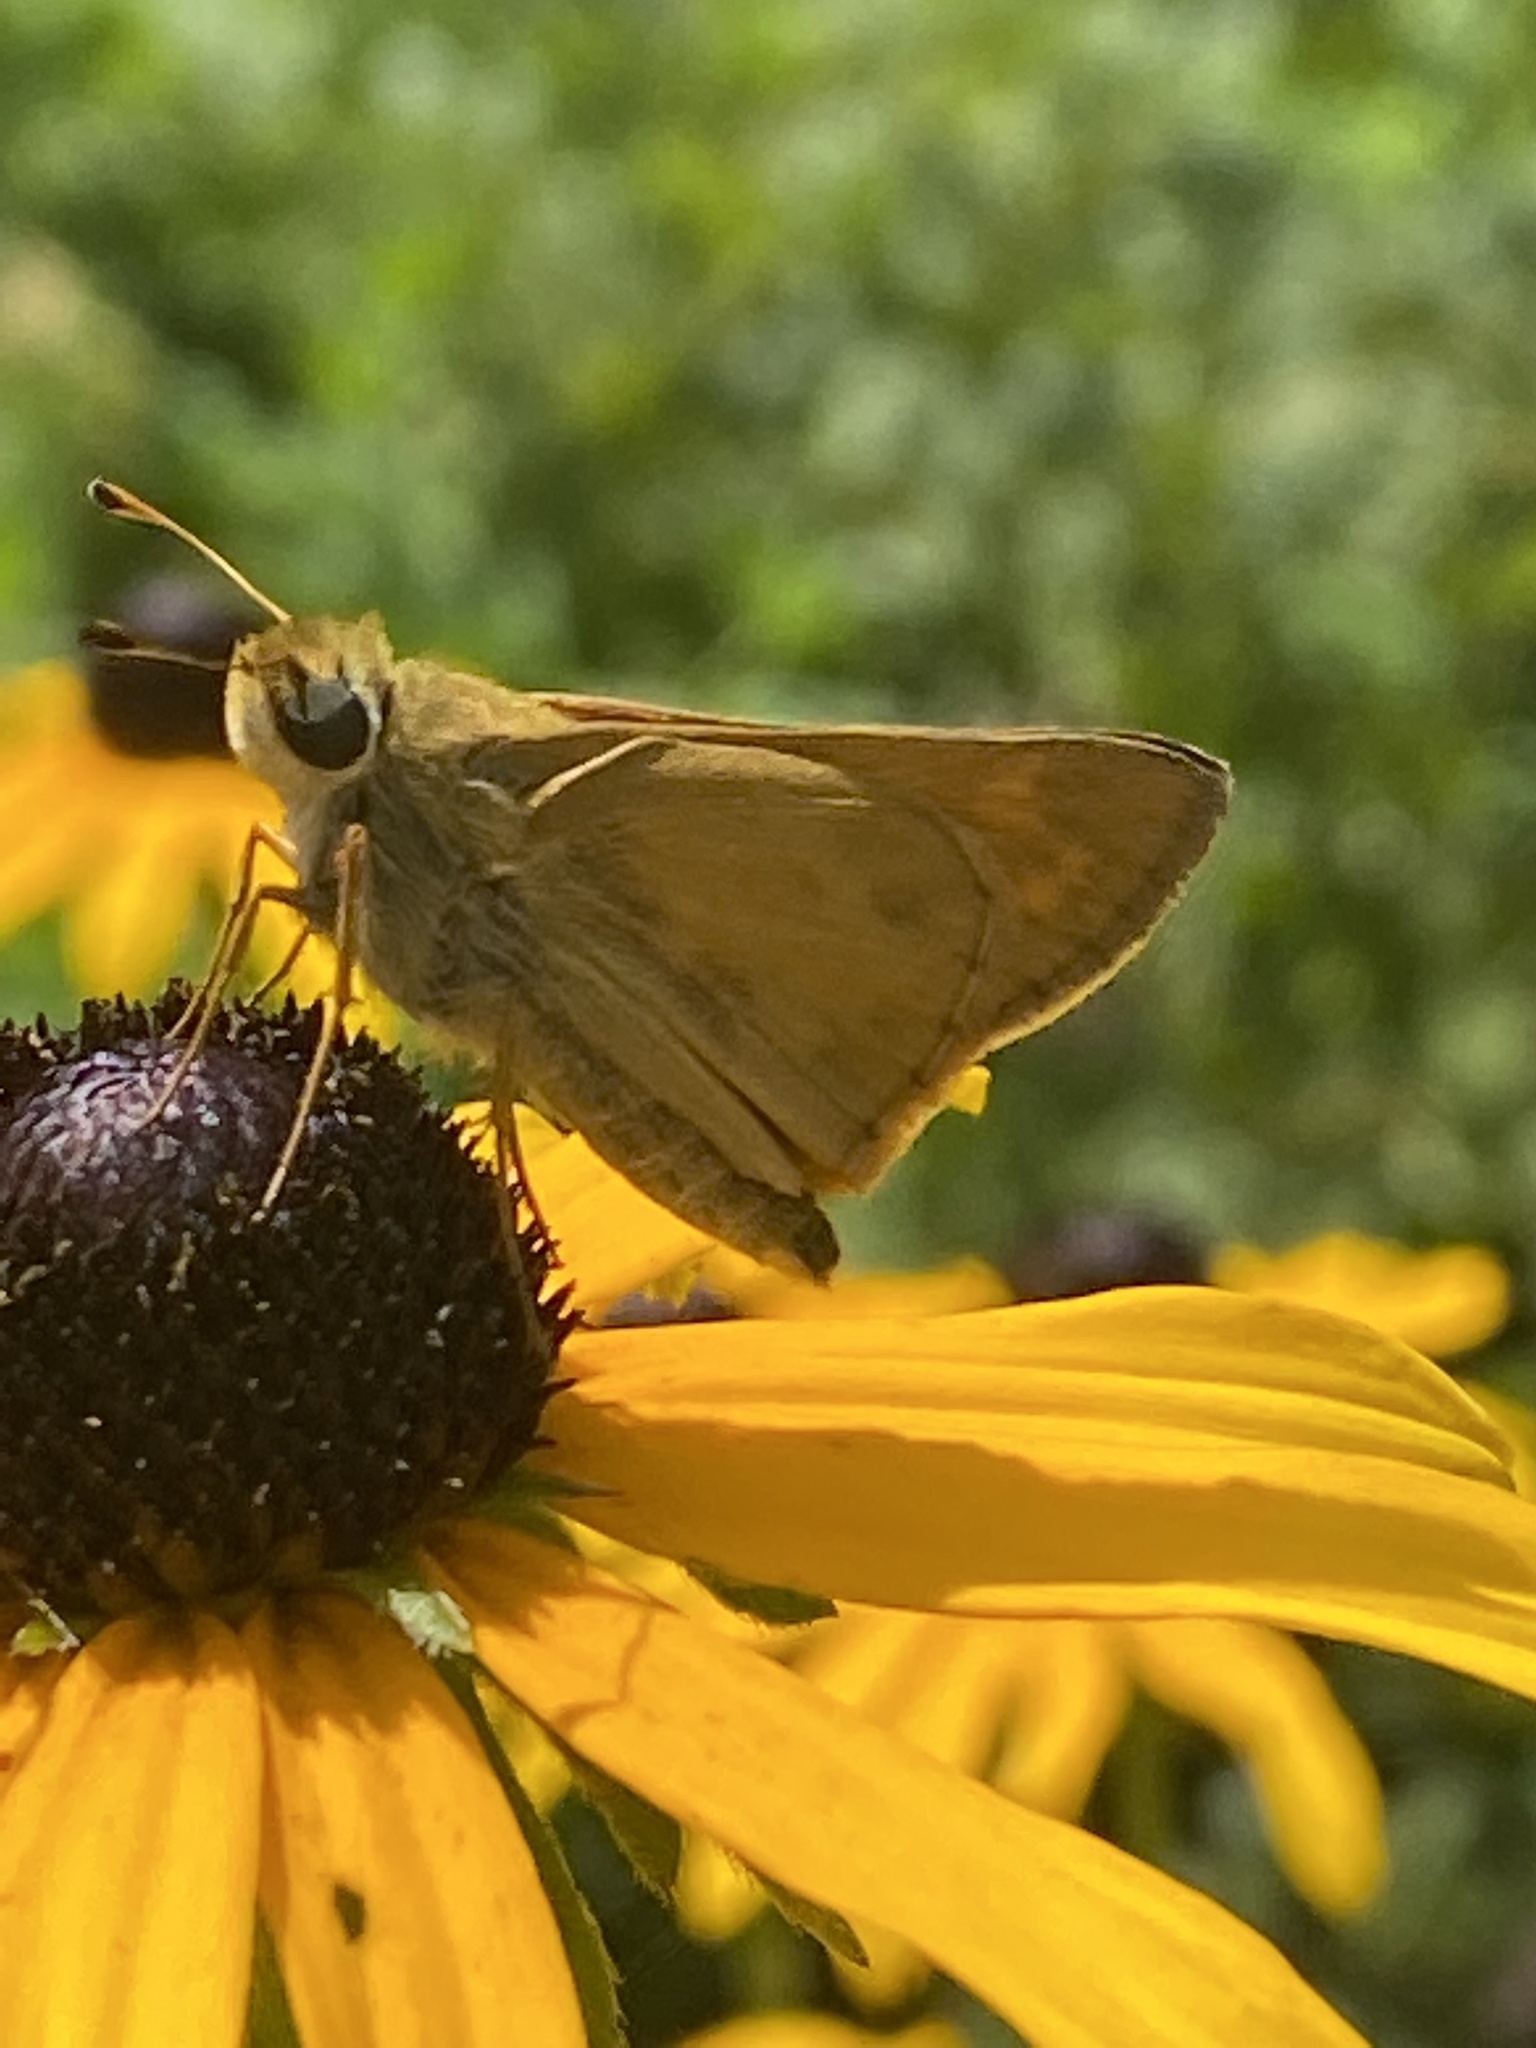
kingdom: Animalia
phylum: Arthropoda
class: Insecta
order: Lepidoptera
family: Hesperiidae
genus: Atalopedes
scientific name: Atalopedes
